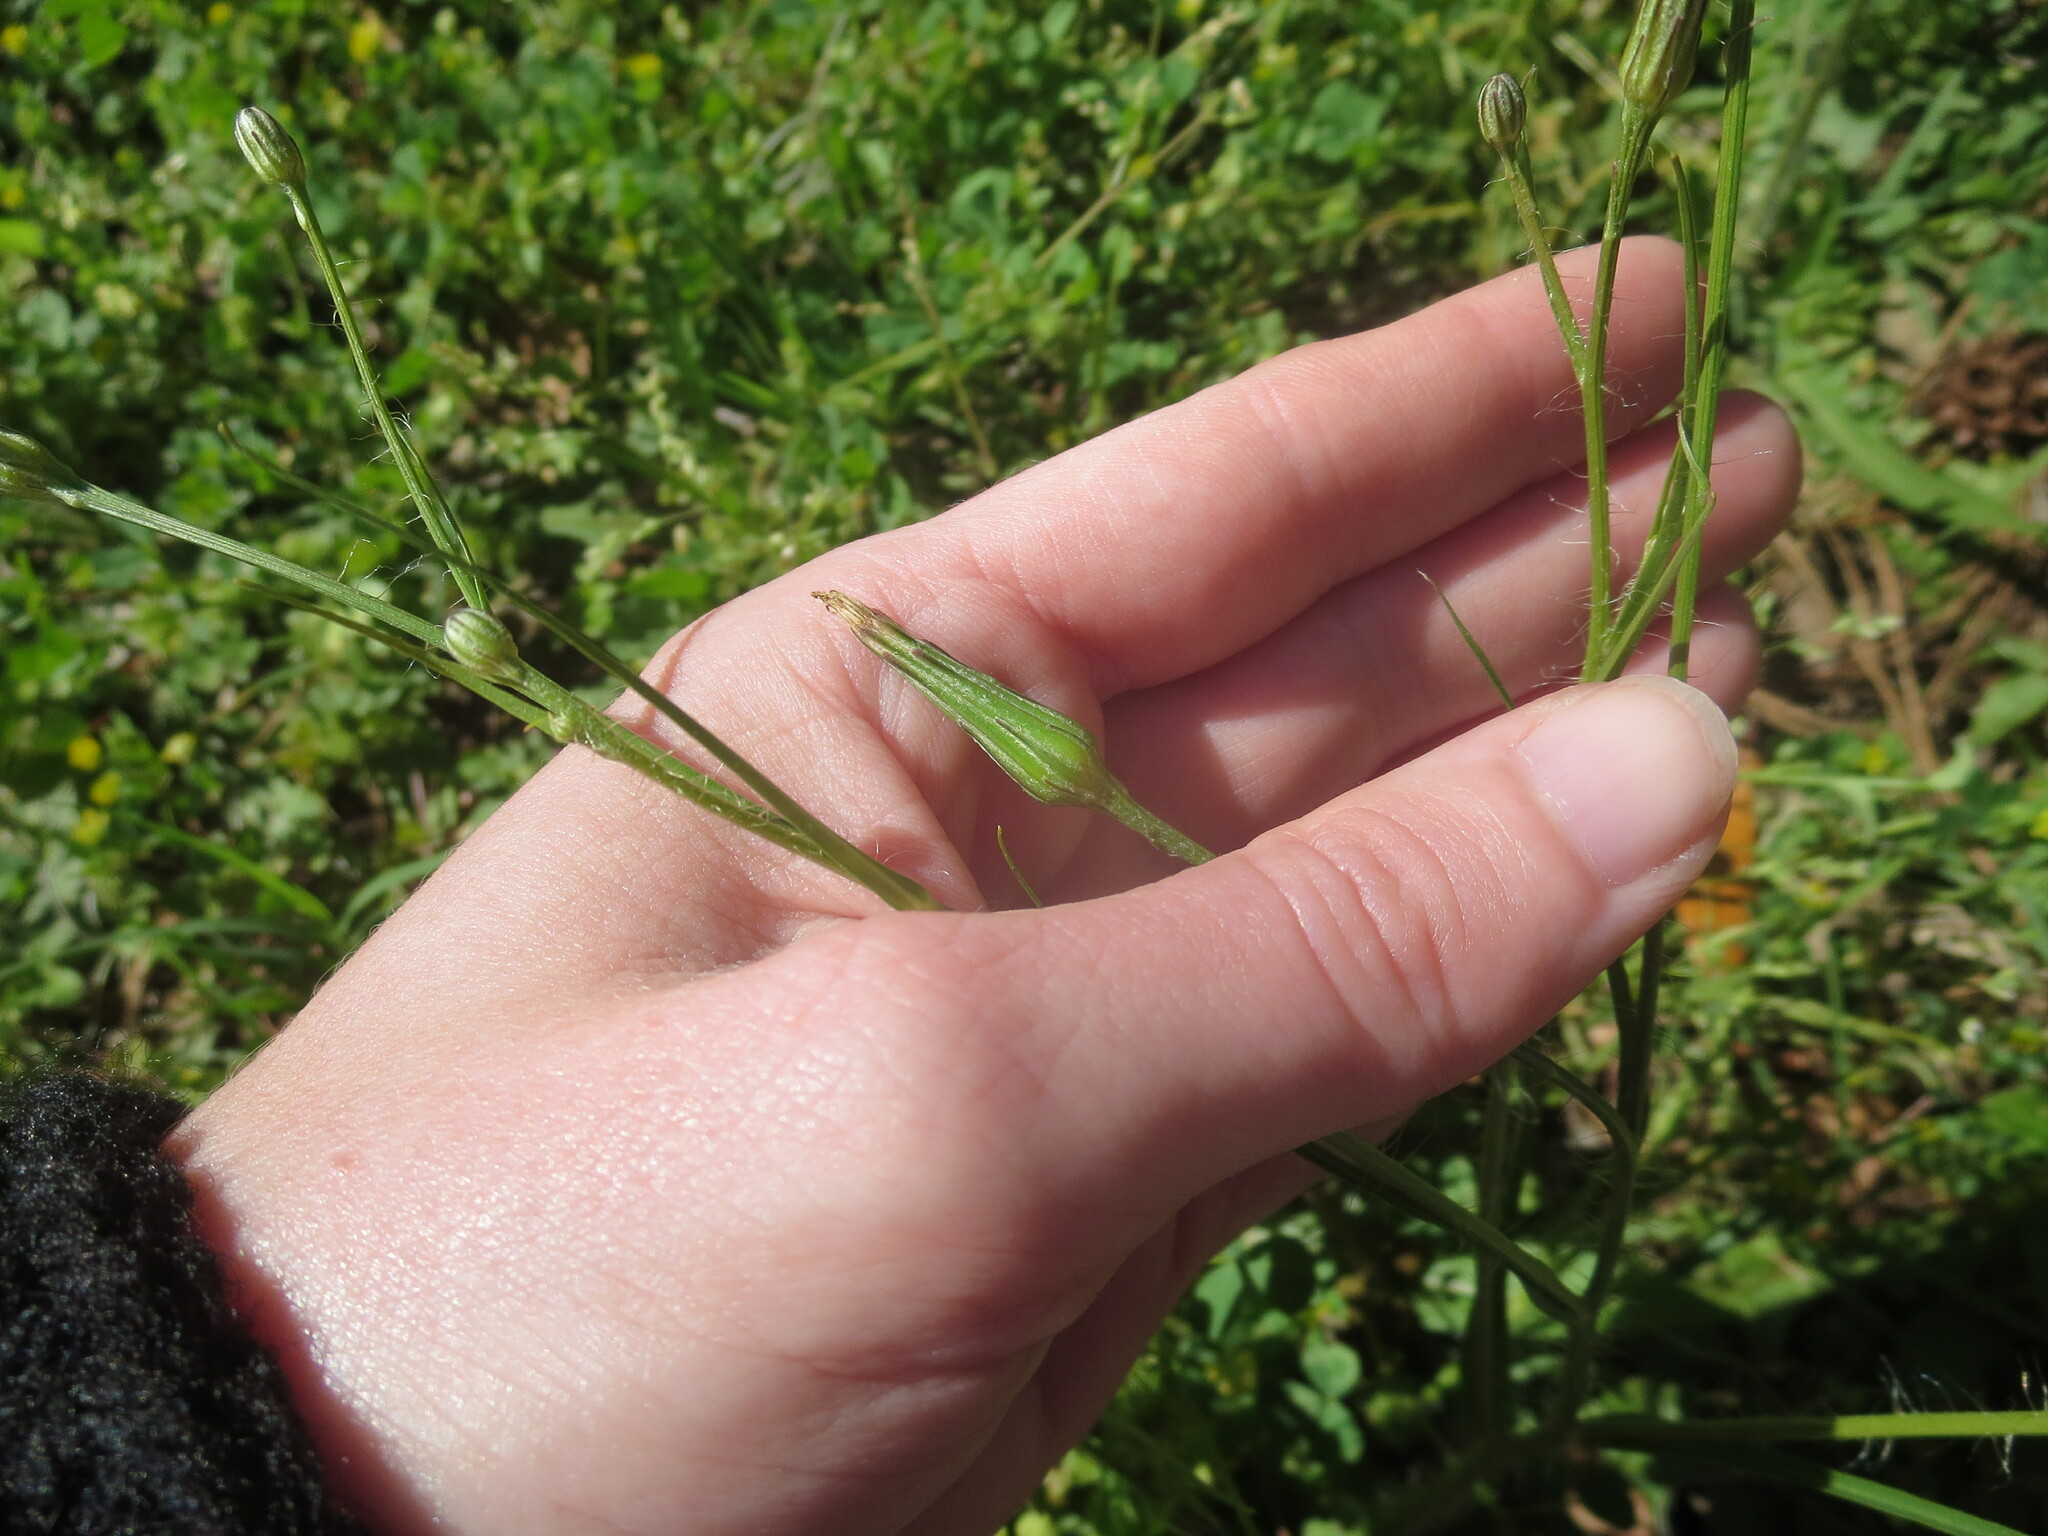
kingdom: Plantae
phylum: Tracheophyta
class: Magnoliopsida
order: Asterales
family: Asteraceae
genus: Hypochaeris
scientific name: Hypochaeris albiflora
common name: White flatweed
